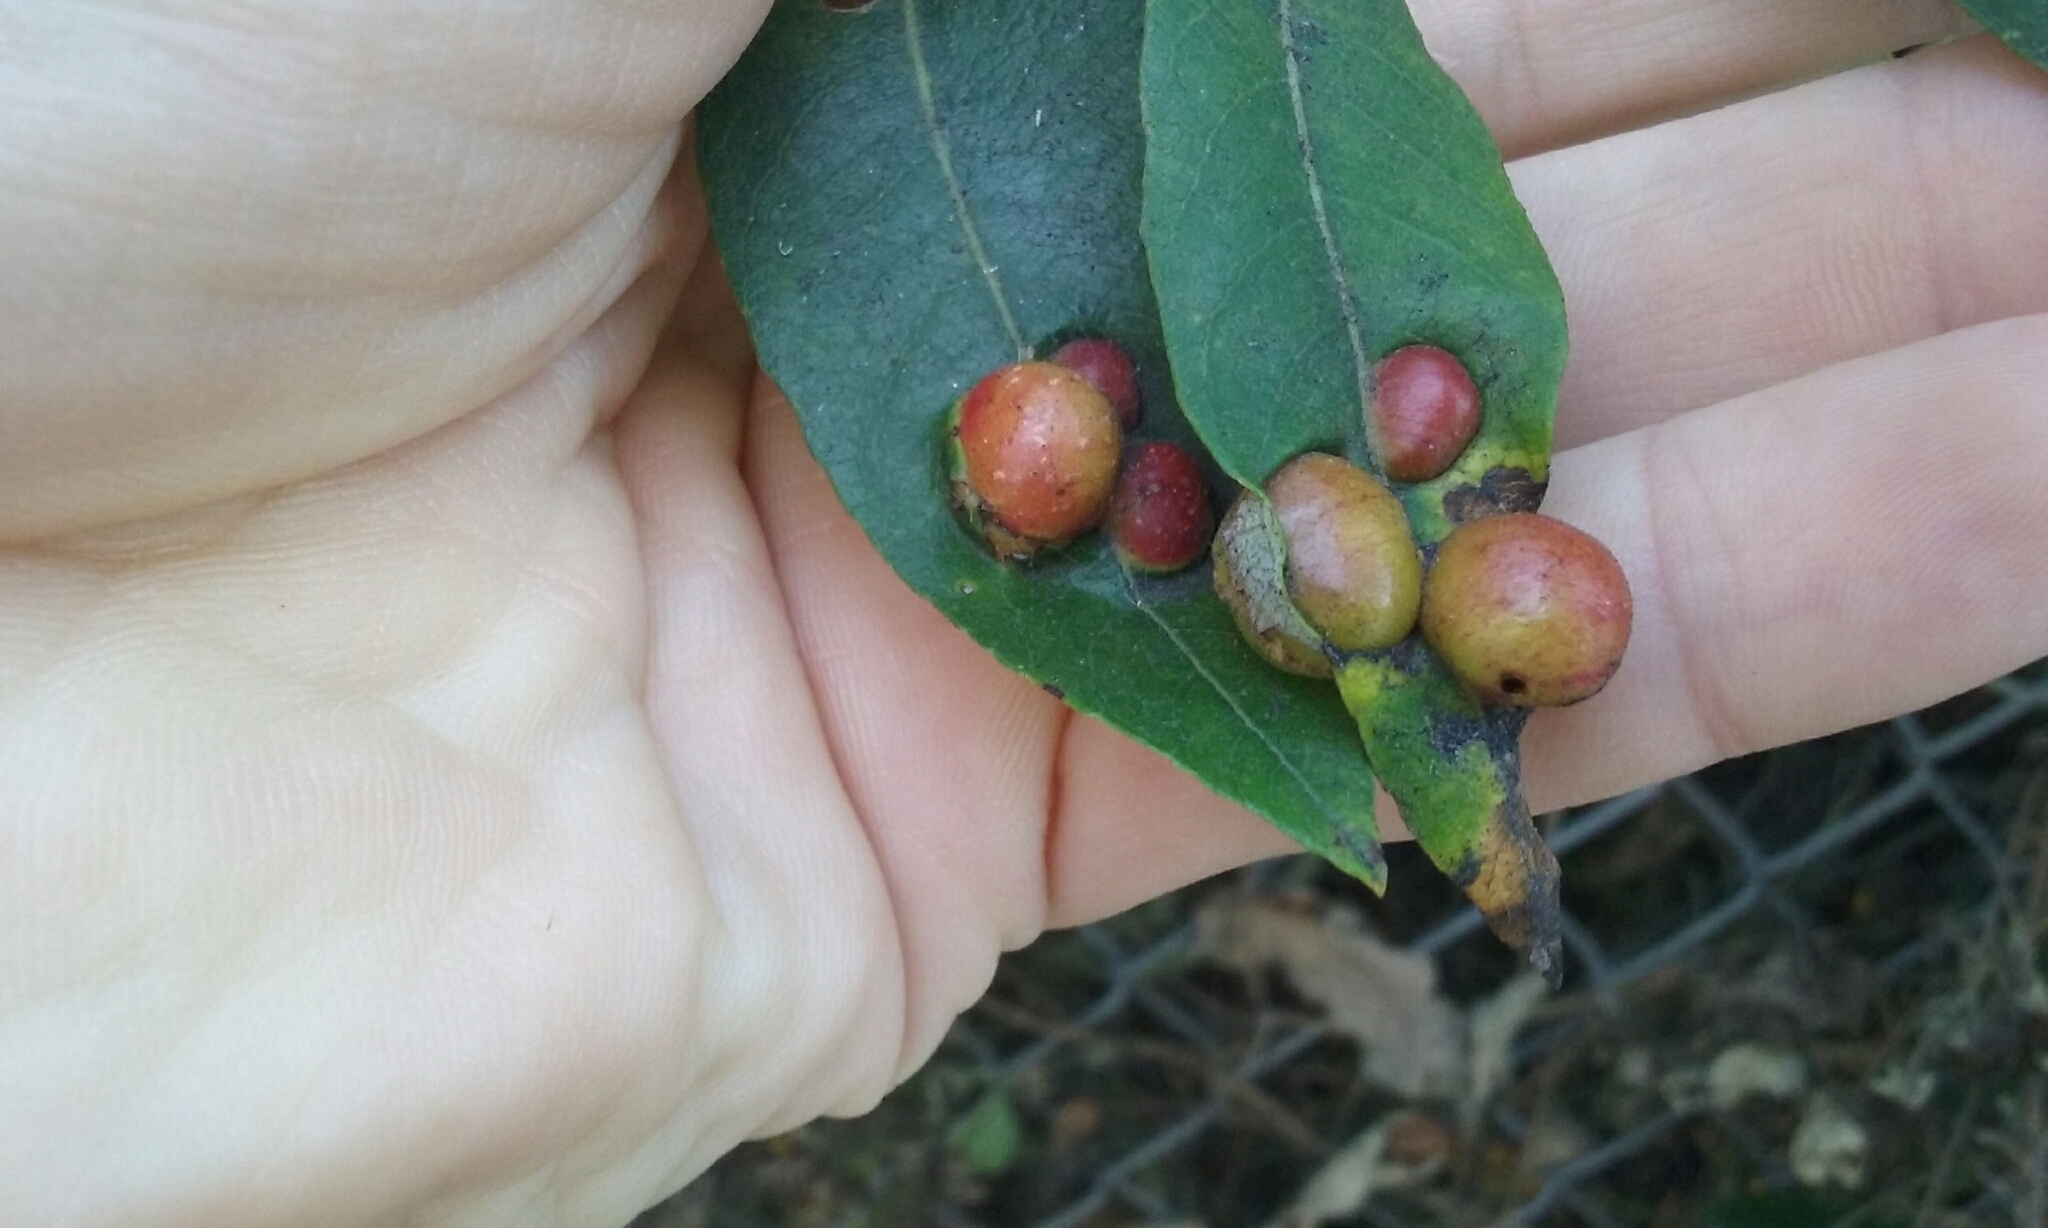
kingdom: Animalia
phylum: Arthropoda
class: Insecta
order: Hymenoptera
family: Tenthredinidae
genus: Euura
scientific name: Euura
